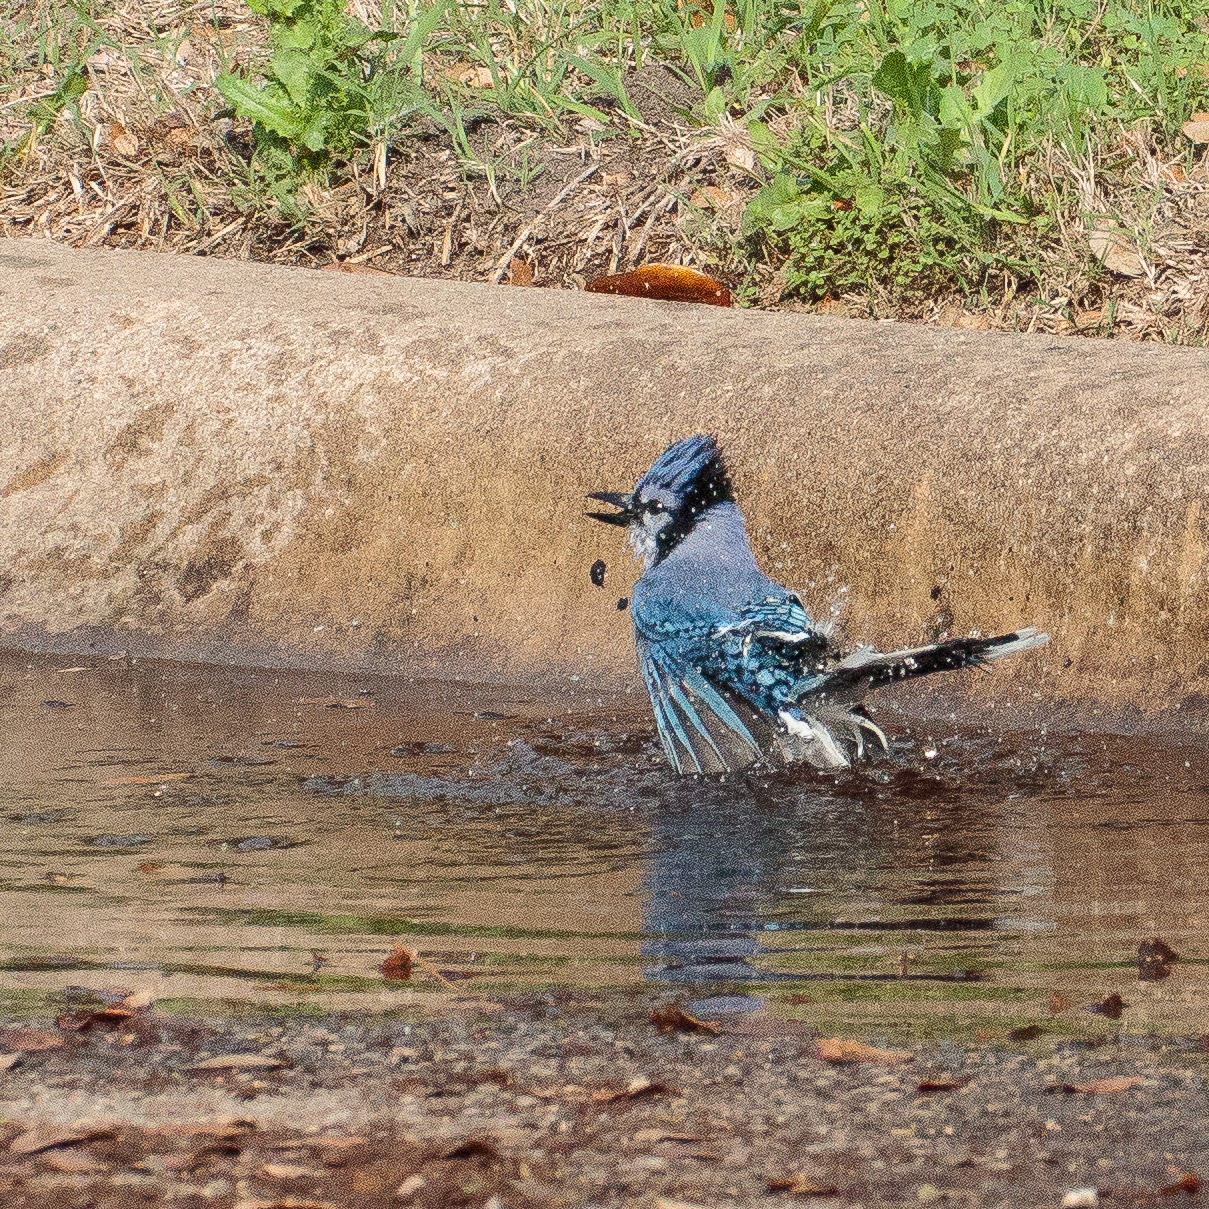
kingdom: Animalia
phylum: Chordata
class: Aves
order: Passeriformes
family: Corvidae
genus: Cyanocitta
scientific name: Cyanocitta cristata
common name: Blue jay
